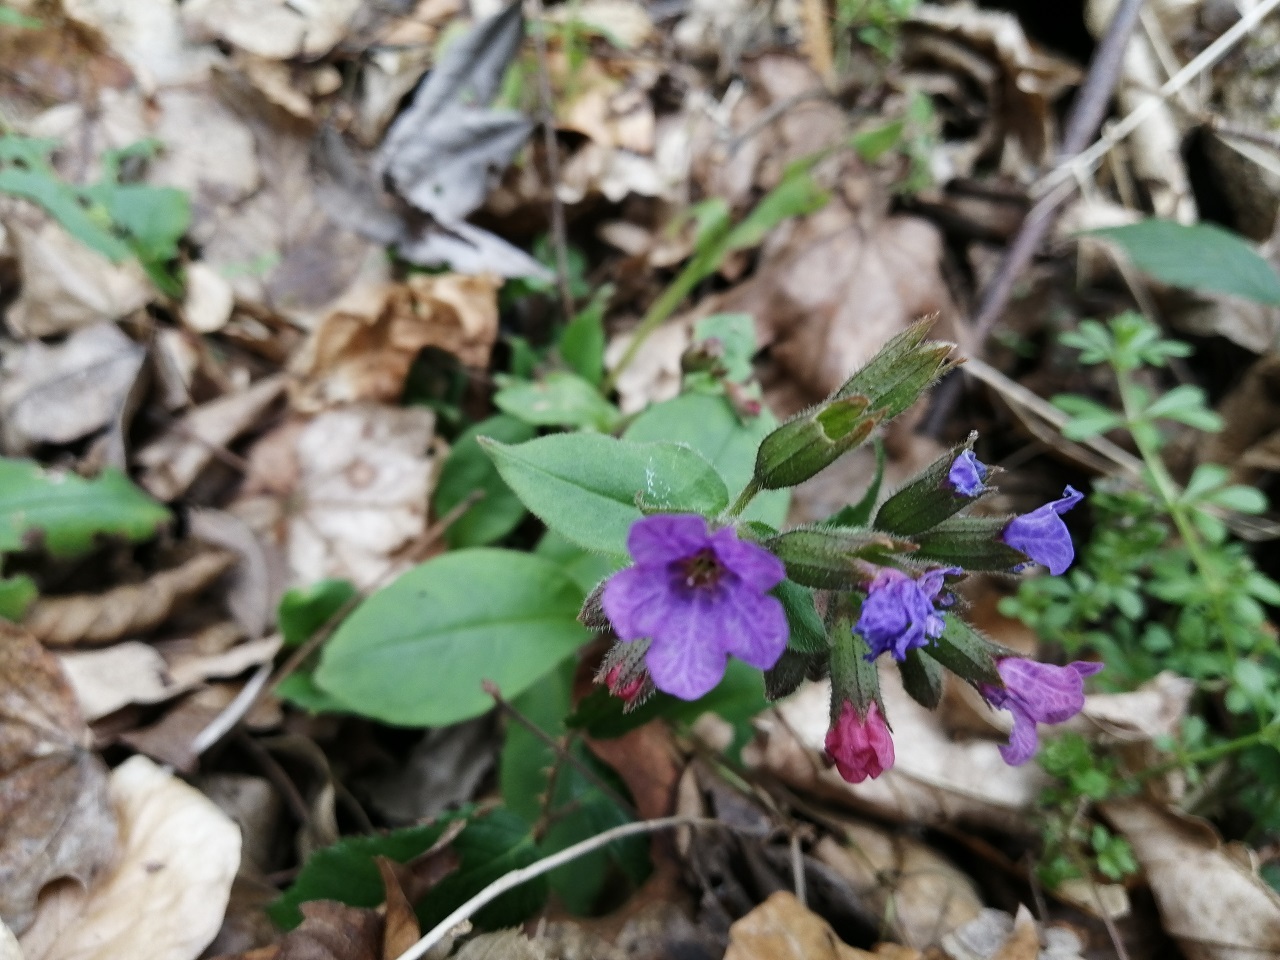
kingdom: Plantae
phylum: Tracheophyta
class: Magnoliopsida
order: Boraginales
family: Boraginaceae
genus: Pulmonaria
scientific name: Pulmonaria obscura
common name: Suffolk lungwort
